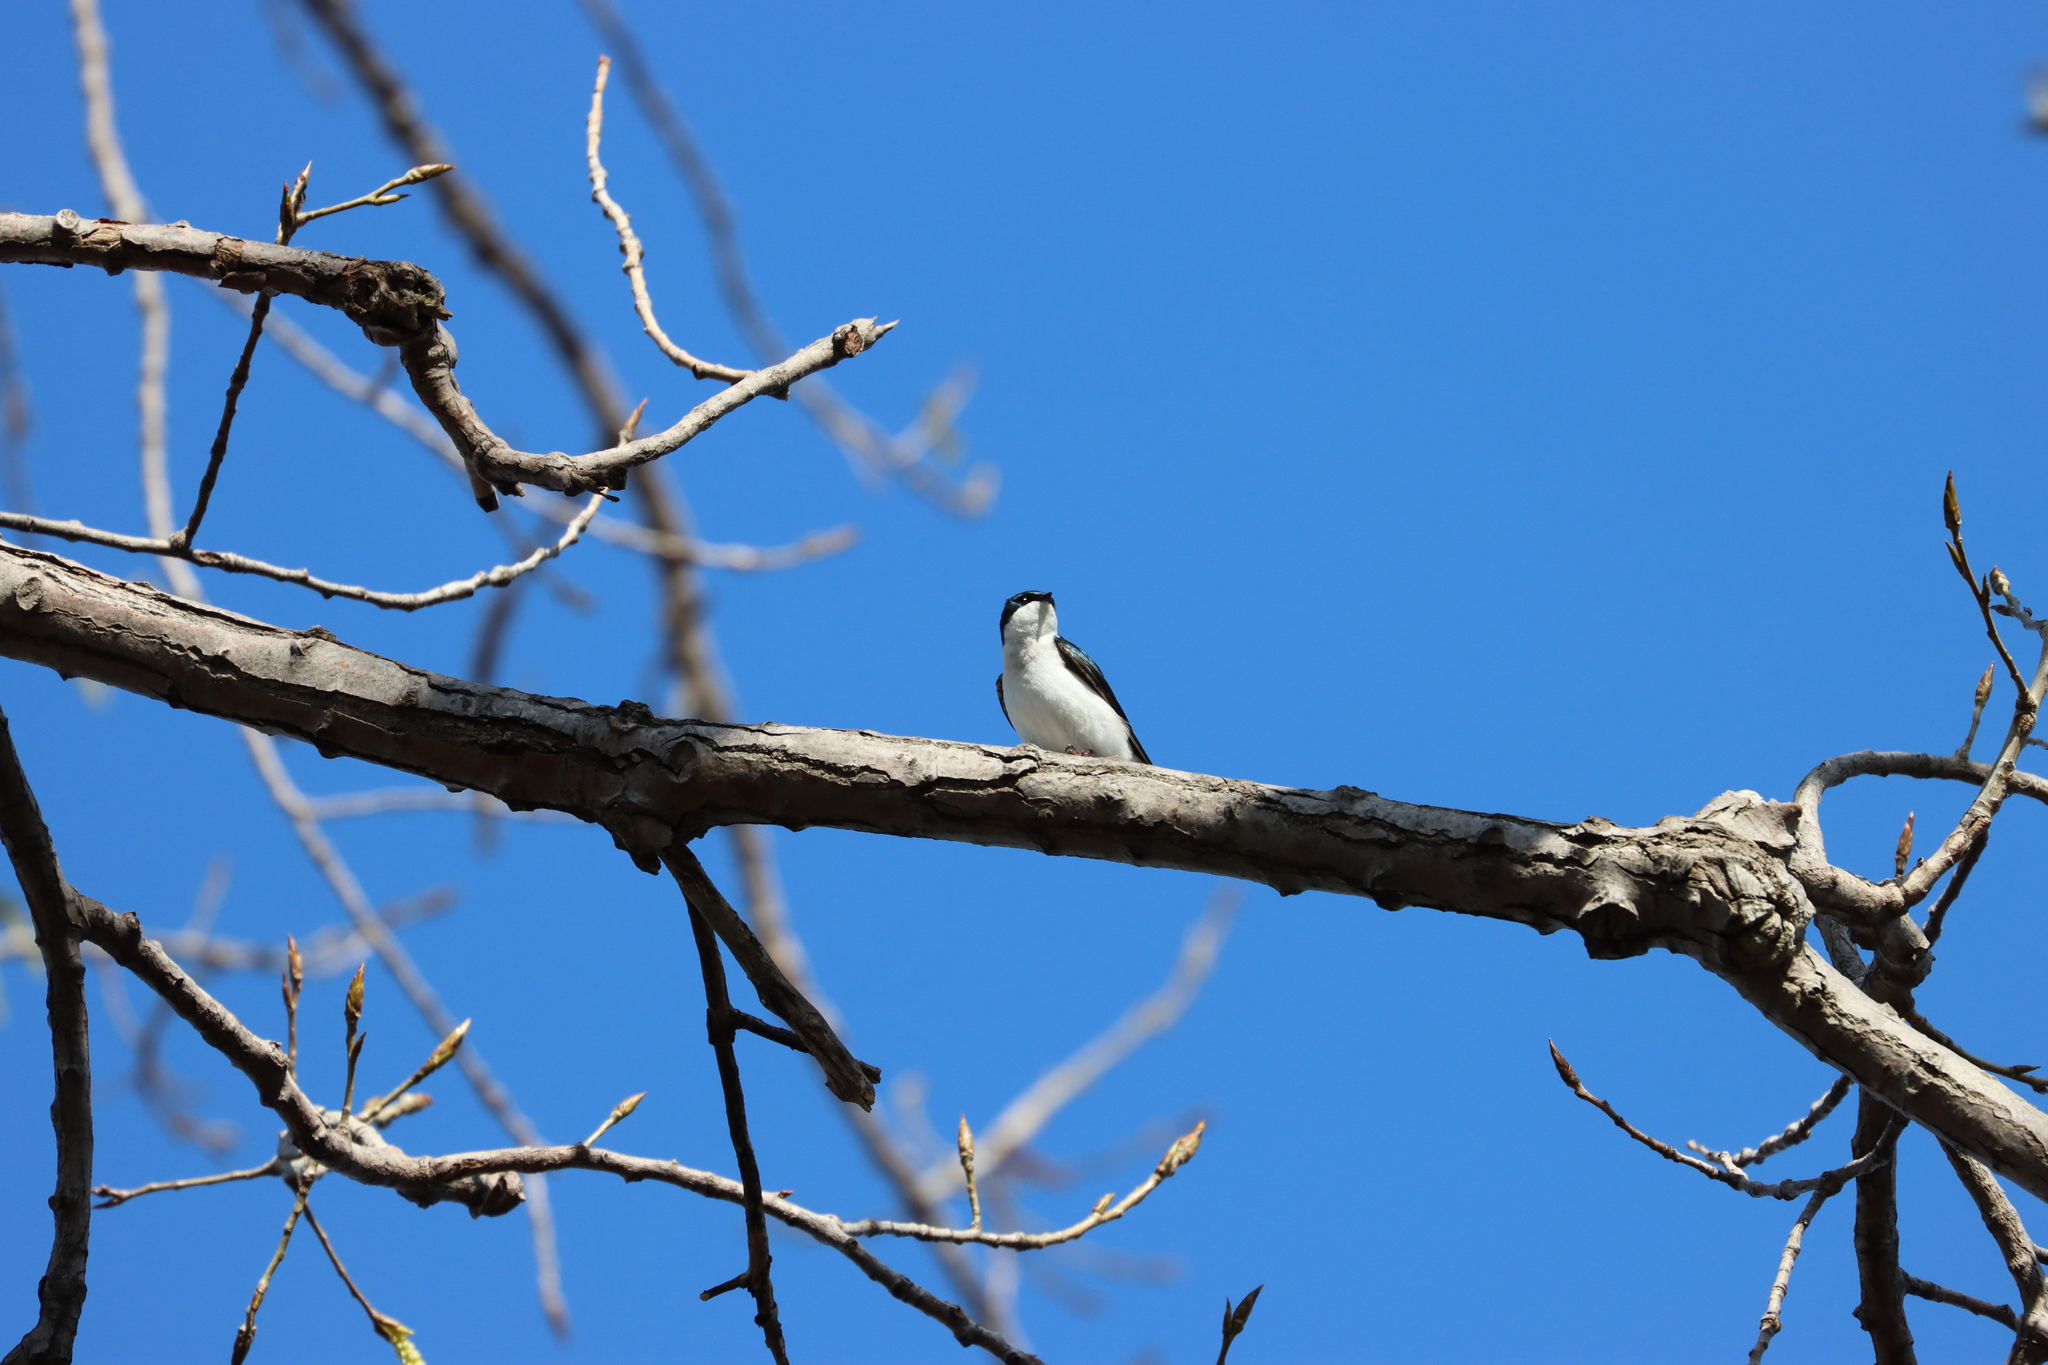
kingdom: Animalia
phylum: Chordata
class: Aves
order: Passeriformes
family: Hirundinidae
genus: Tachycineta
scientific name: Tachycineta bicolor
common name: Tree swallow
